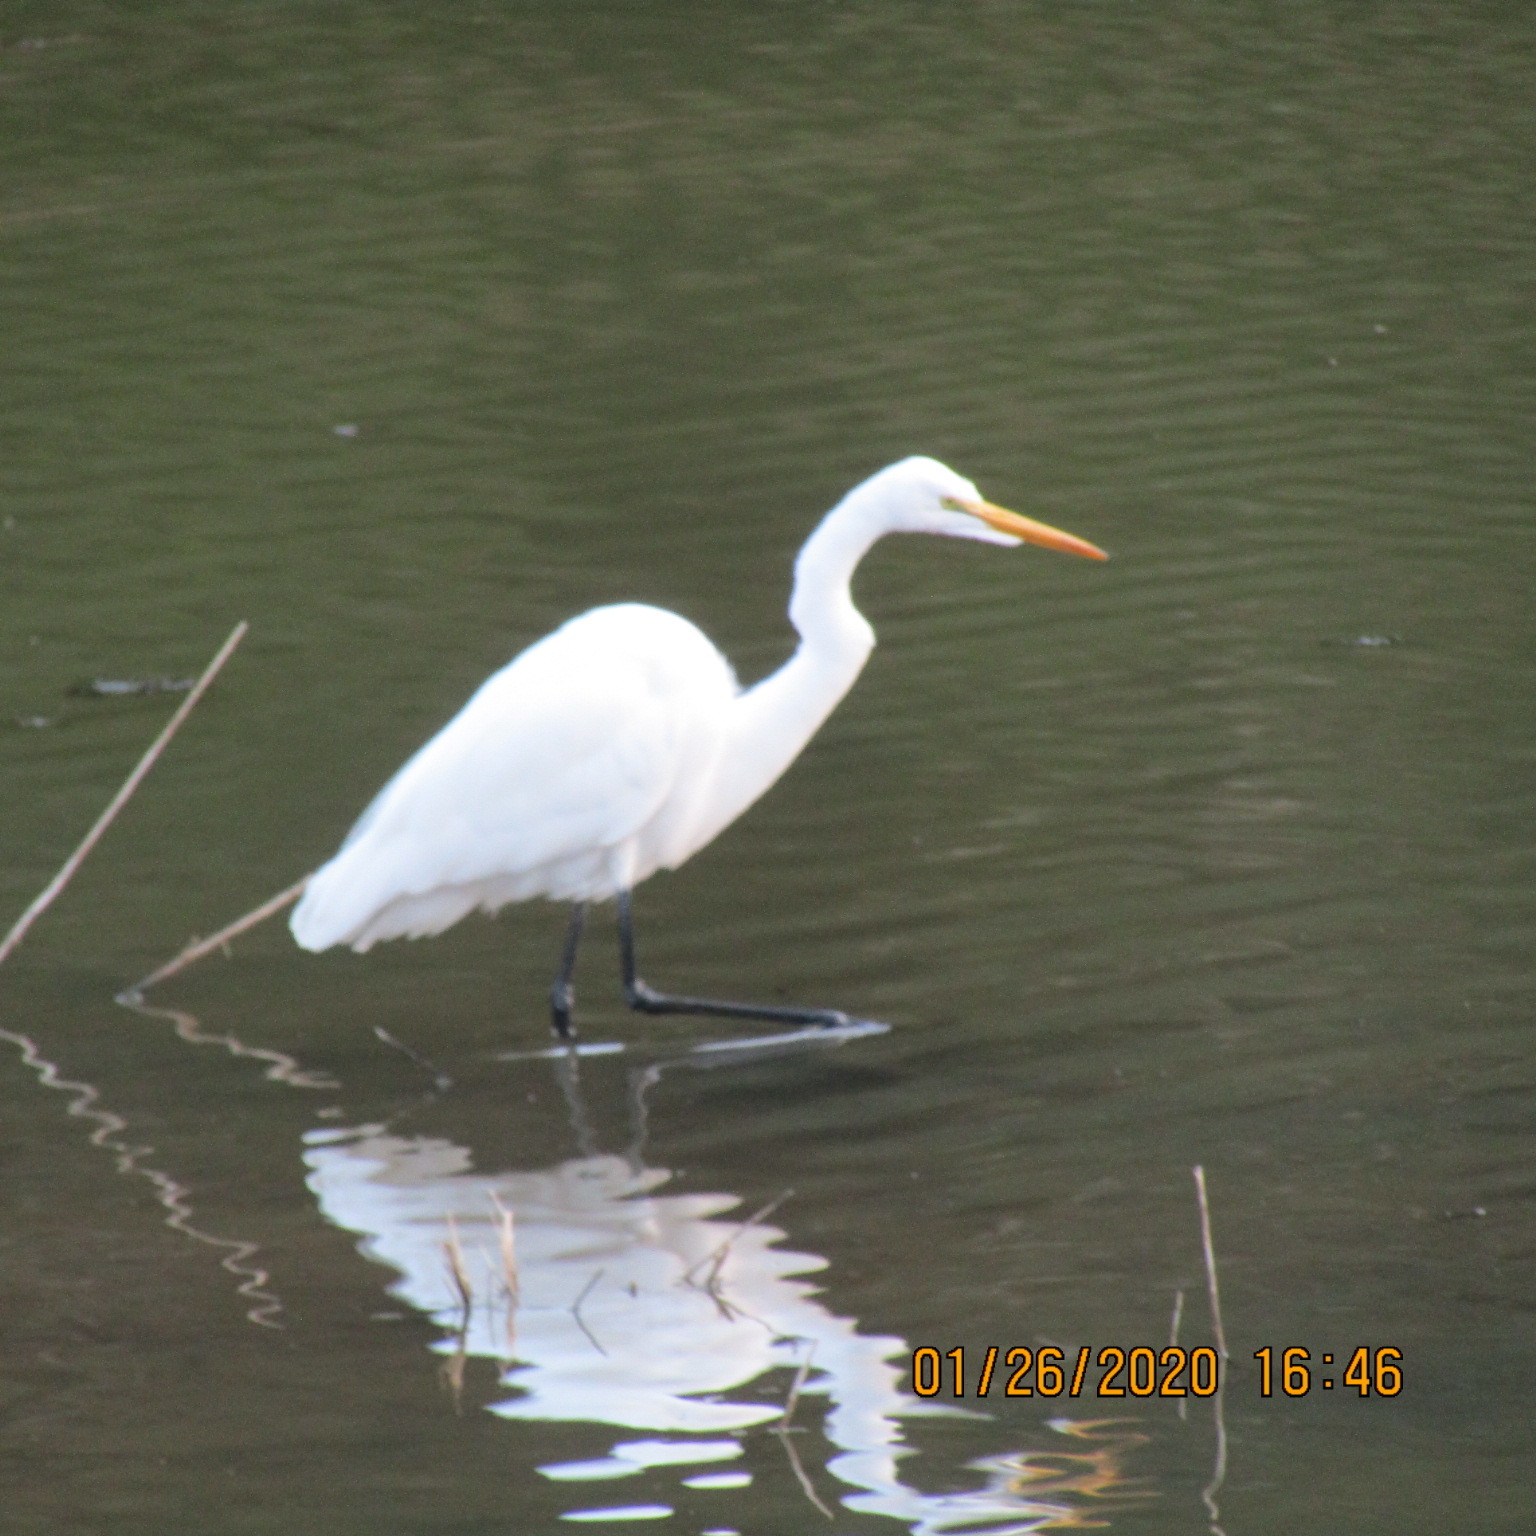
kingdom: Animalia
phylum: Chordata
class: Aves
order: Pelecaniformes
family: Ardeidae
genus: Ardea
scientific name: Ardea alba
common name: Great egret
